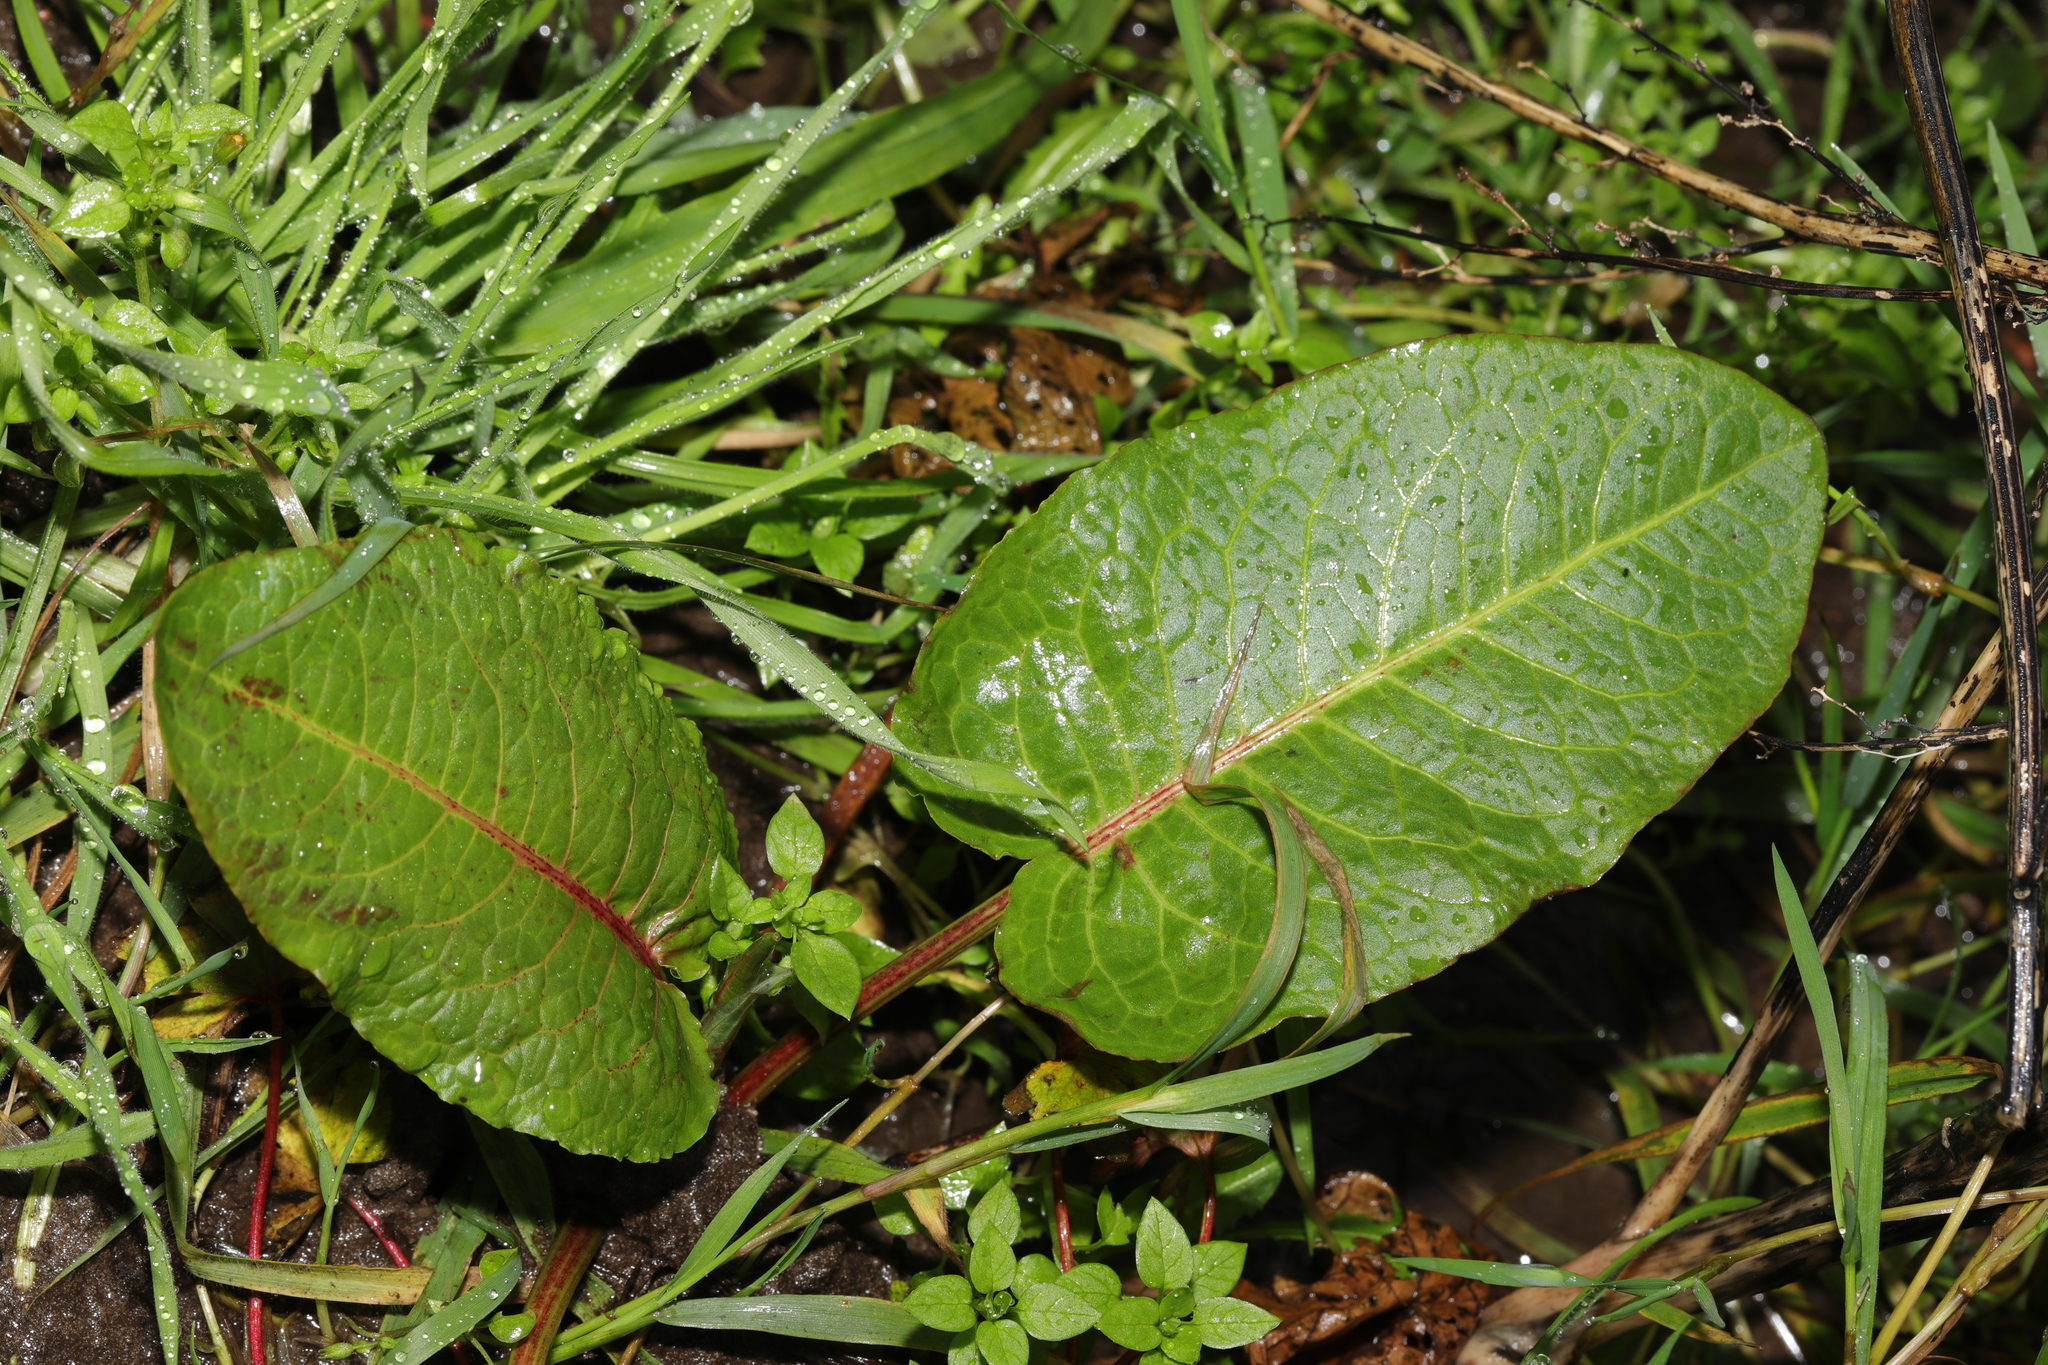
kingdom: Plantae
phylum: Tracheophyta
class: Magnoliopsida
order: Caryophyllales
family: Polygonaceae
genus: Rumex
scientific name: Rumex obtusifolius
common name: Bitter dock
